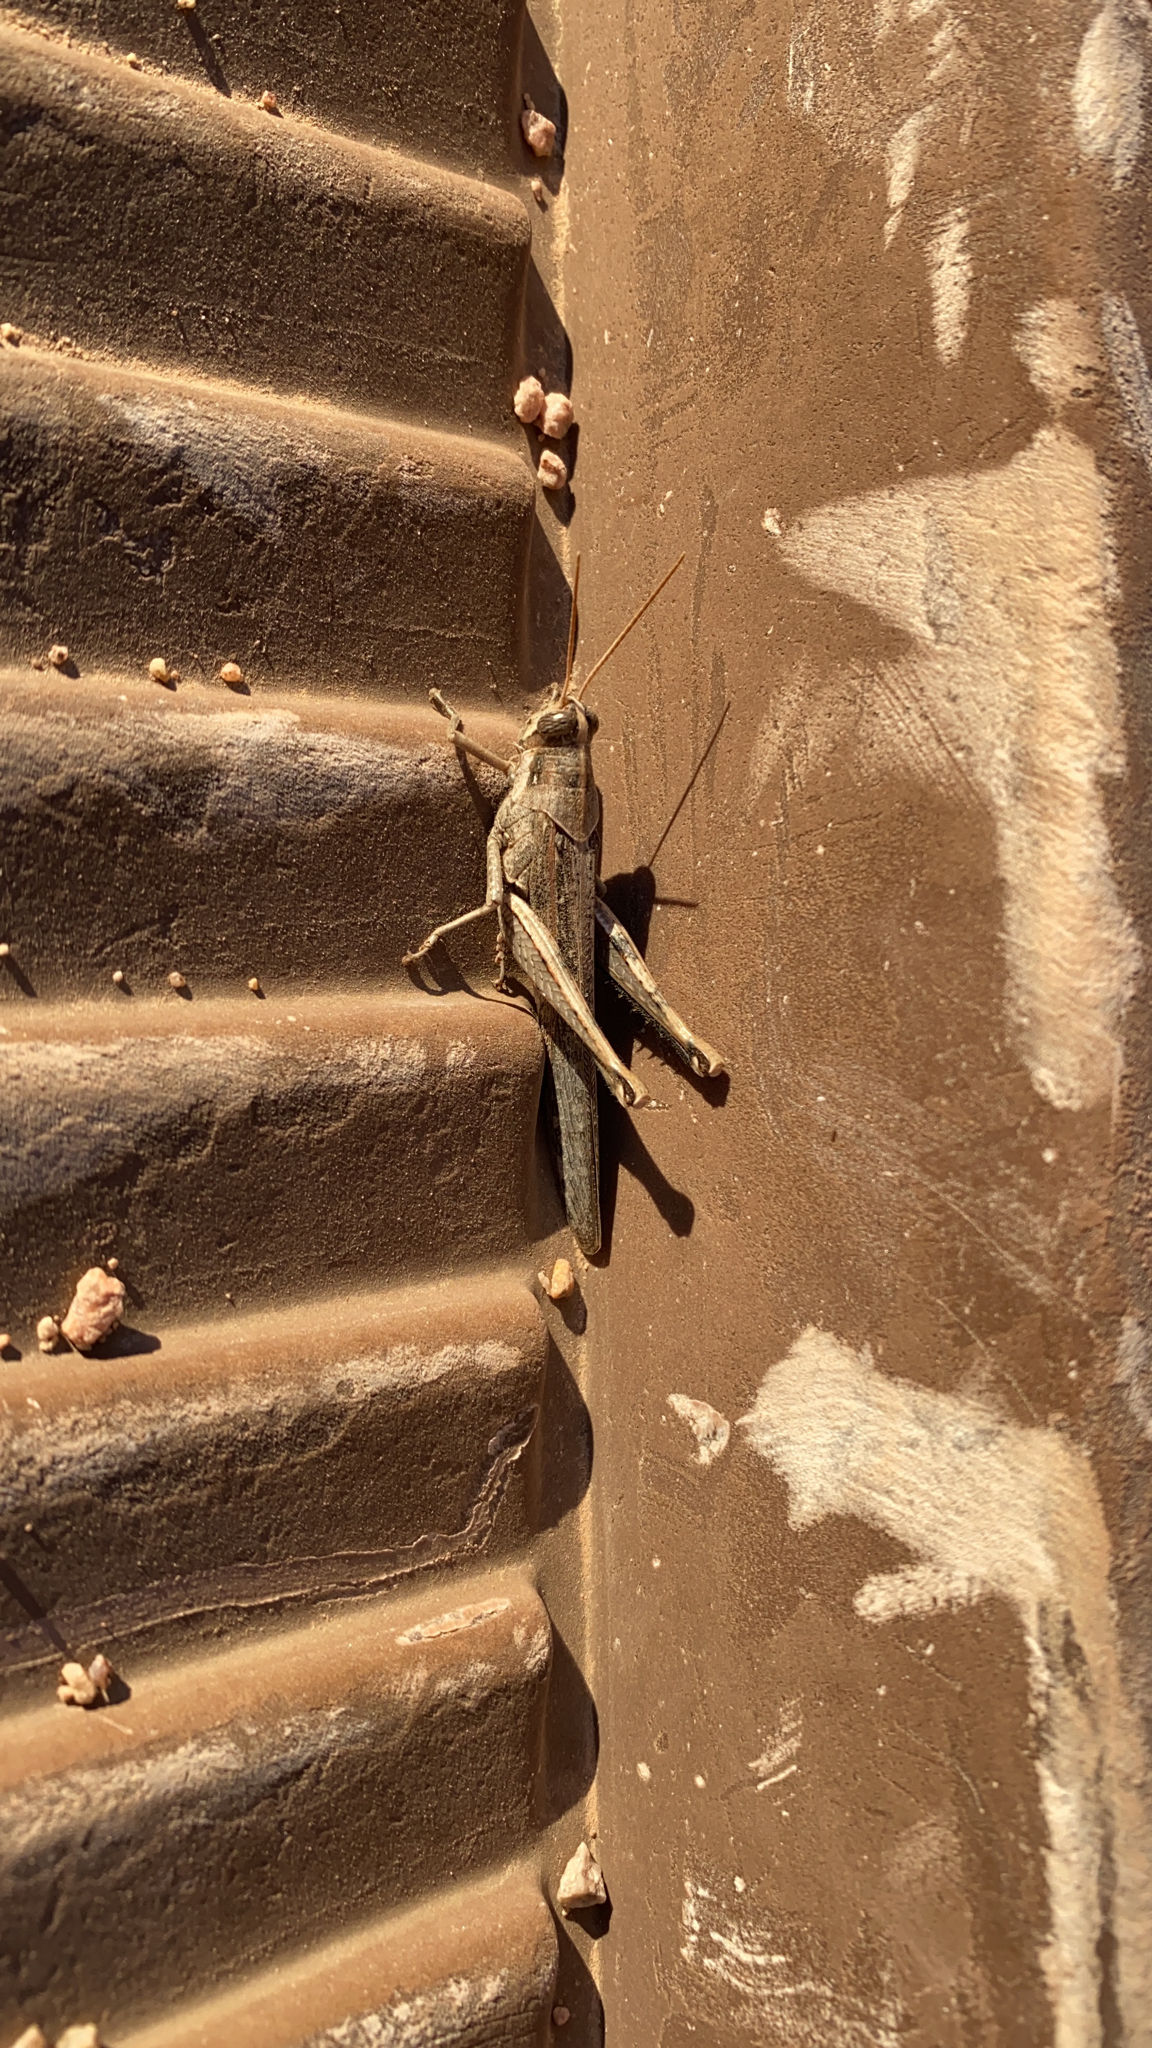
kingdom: Animalia
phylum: Arthropoda
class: Insecta
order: Orthoptera
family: Acrididae
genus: Schistocerca
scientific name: Schistocerca nitens
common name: Vagrant grasshopper
